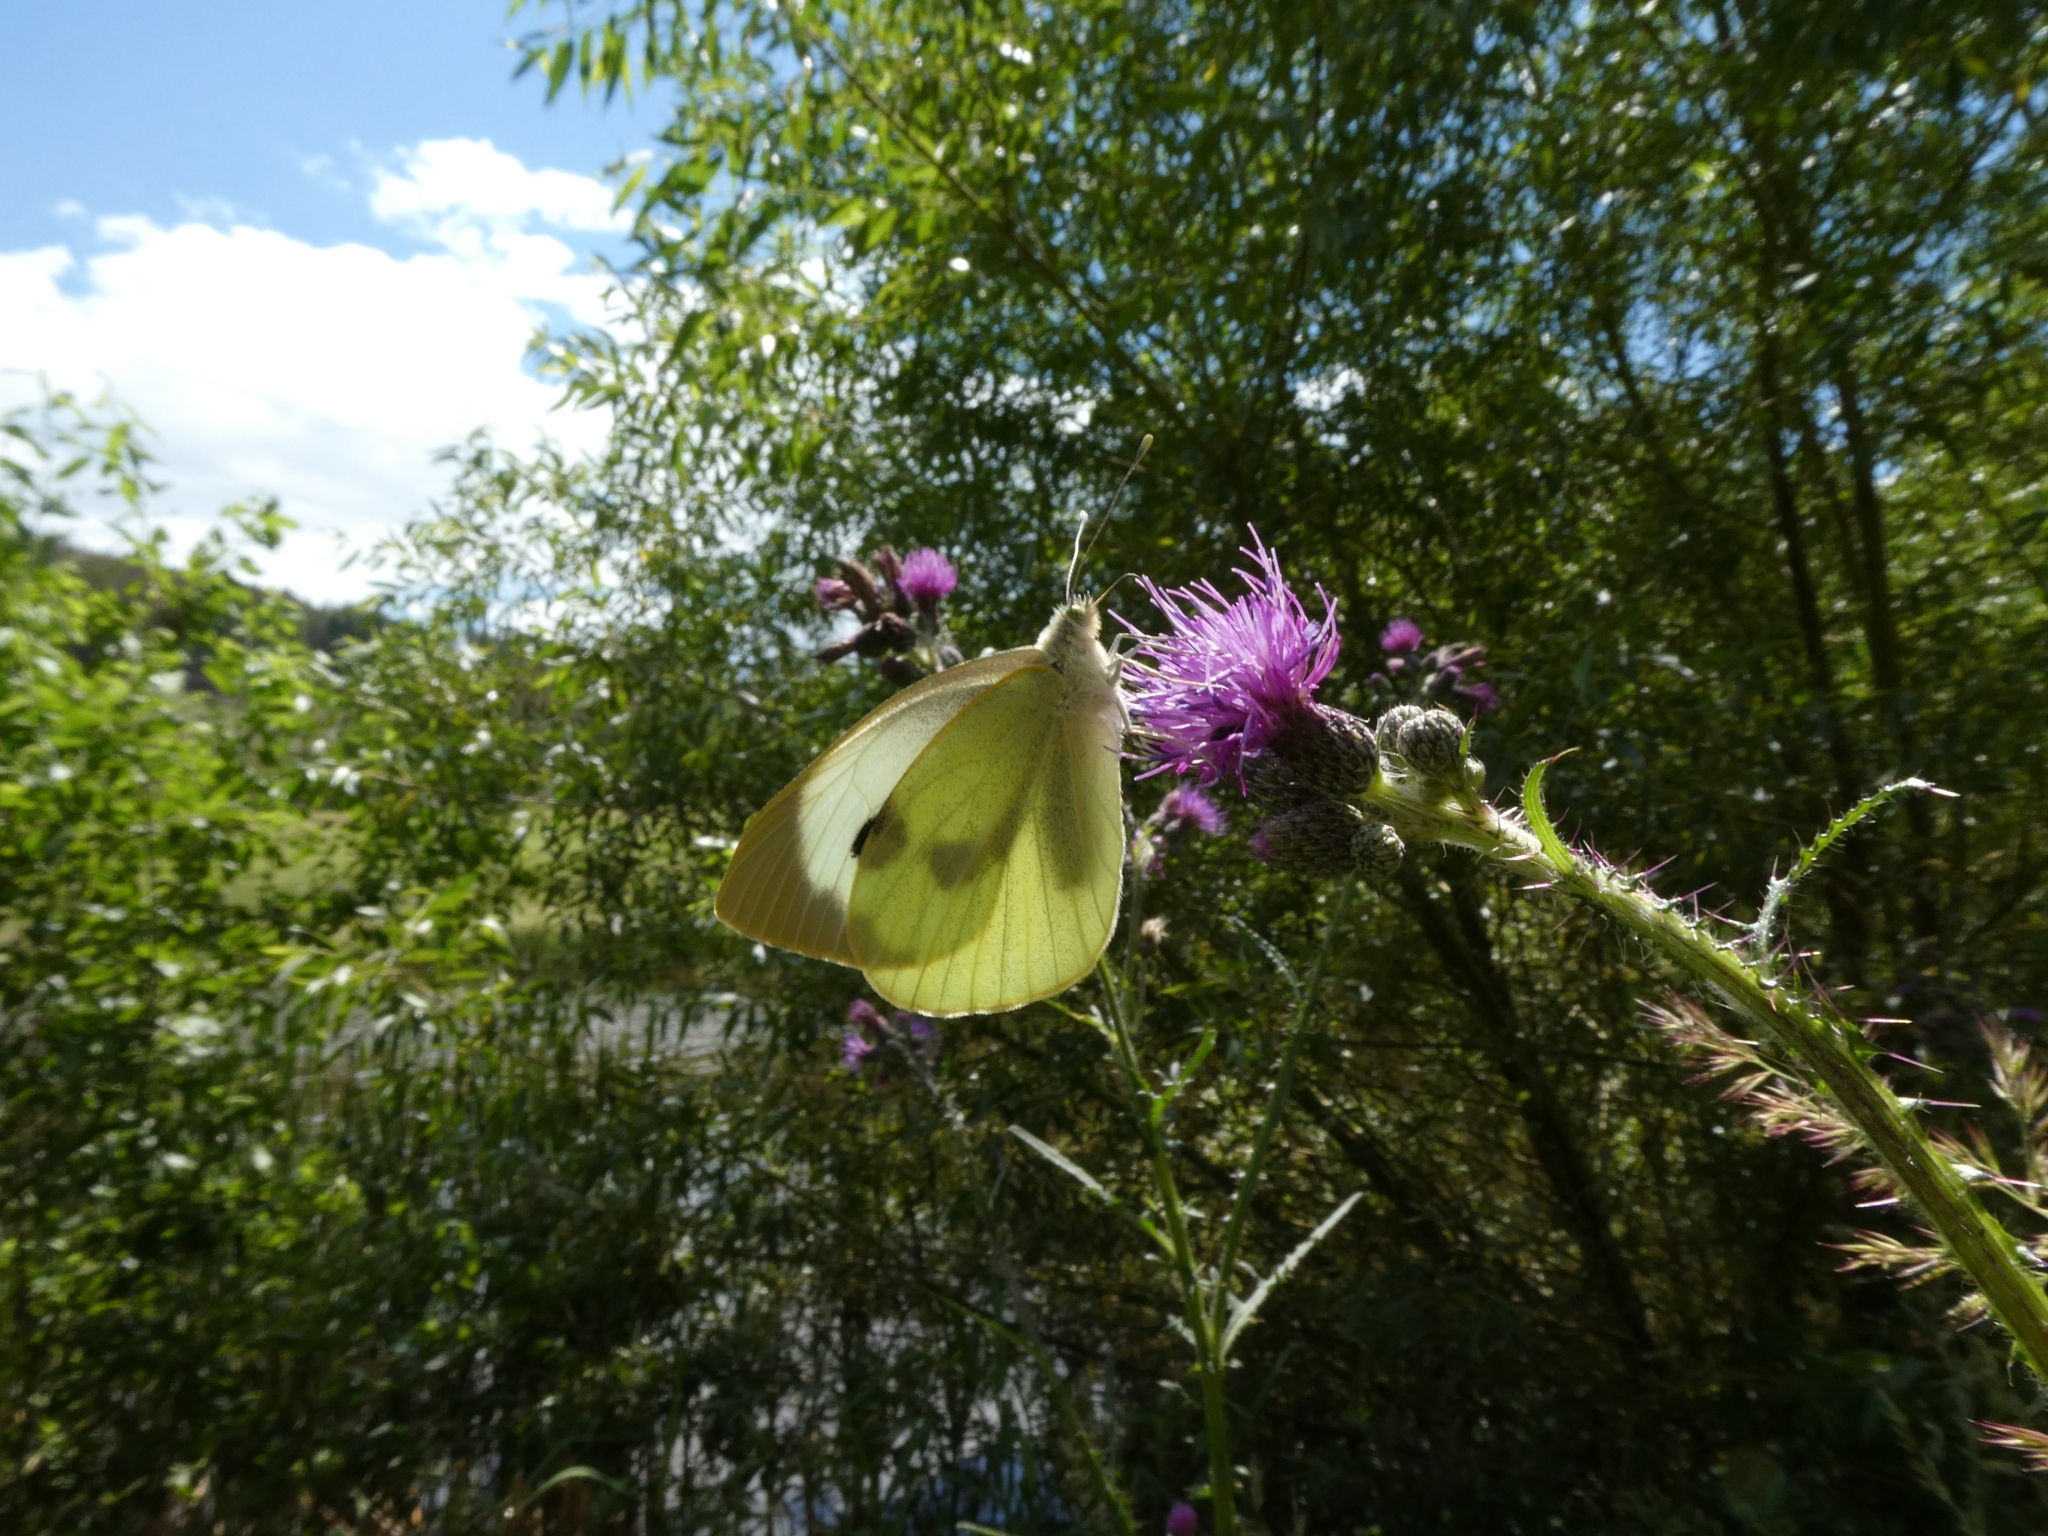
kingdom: Animalia
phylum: Arthropoda
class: Insecta
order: Lepidoptera
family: Pieridae
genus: Pieris
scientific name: Pieris brassicae
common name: Large white
